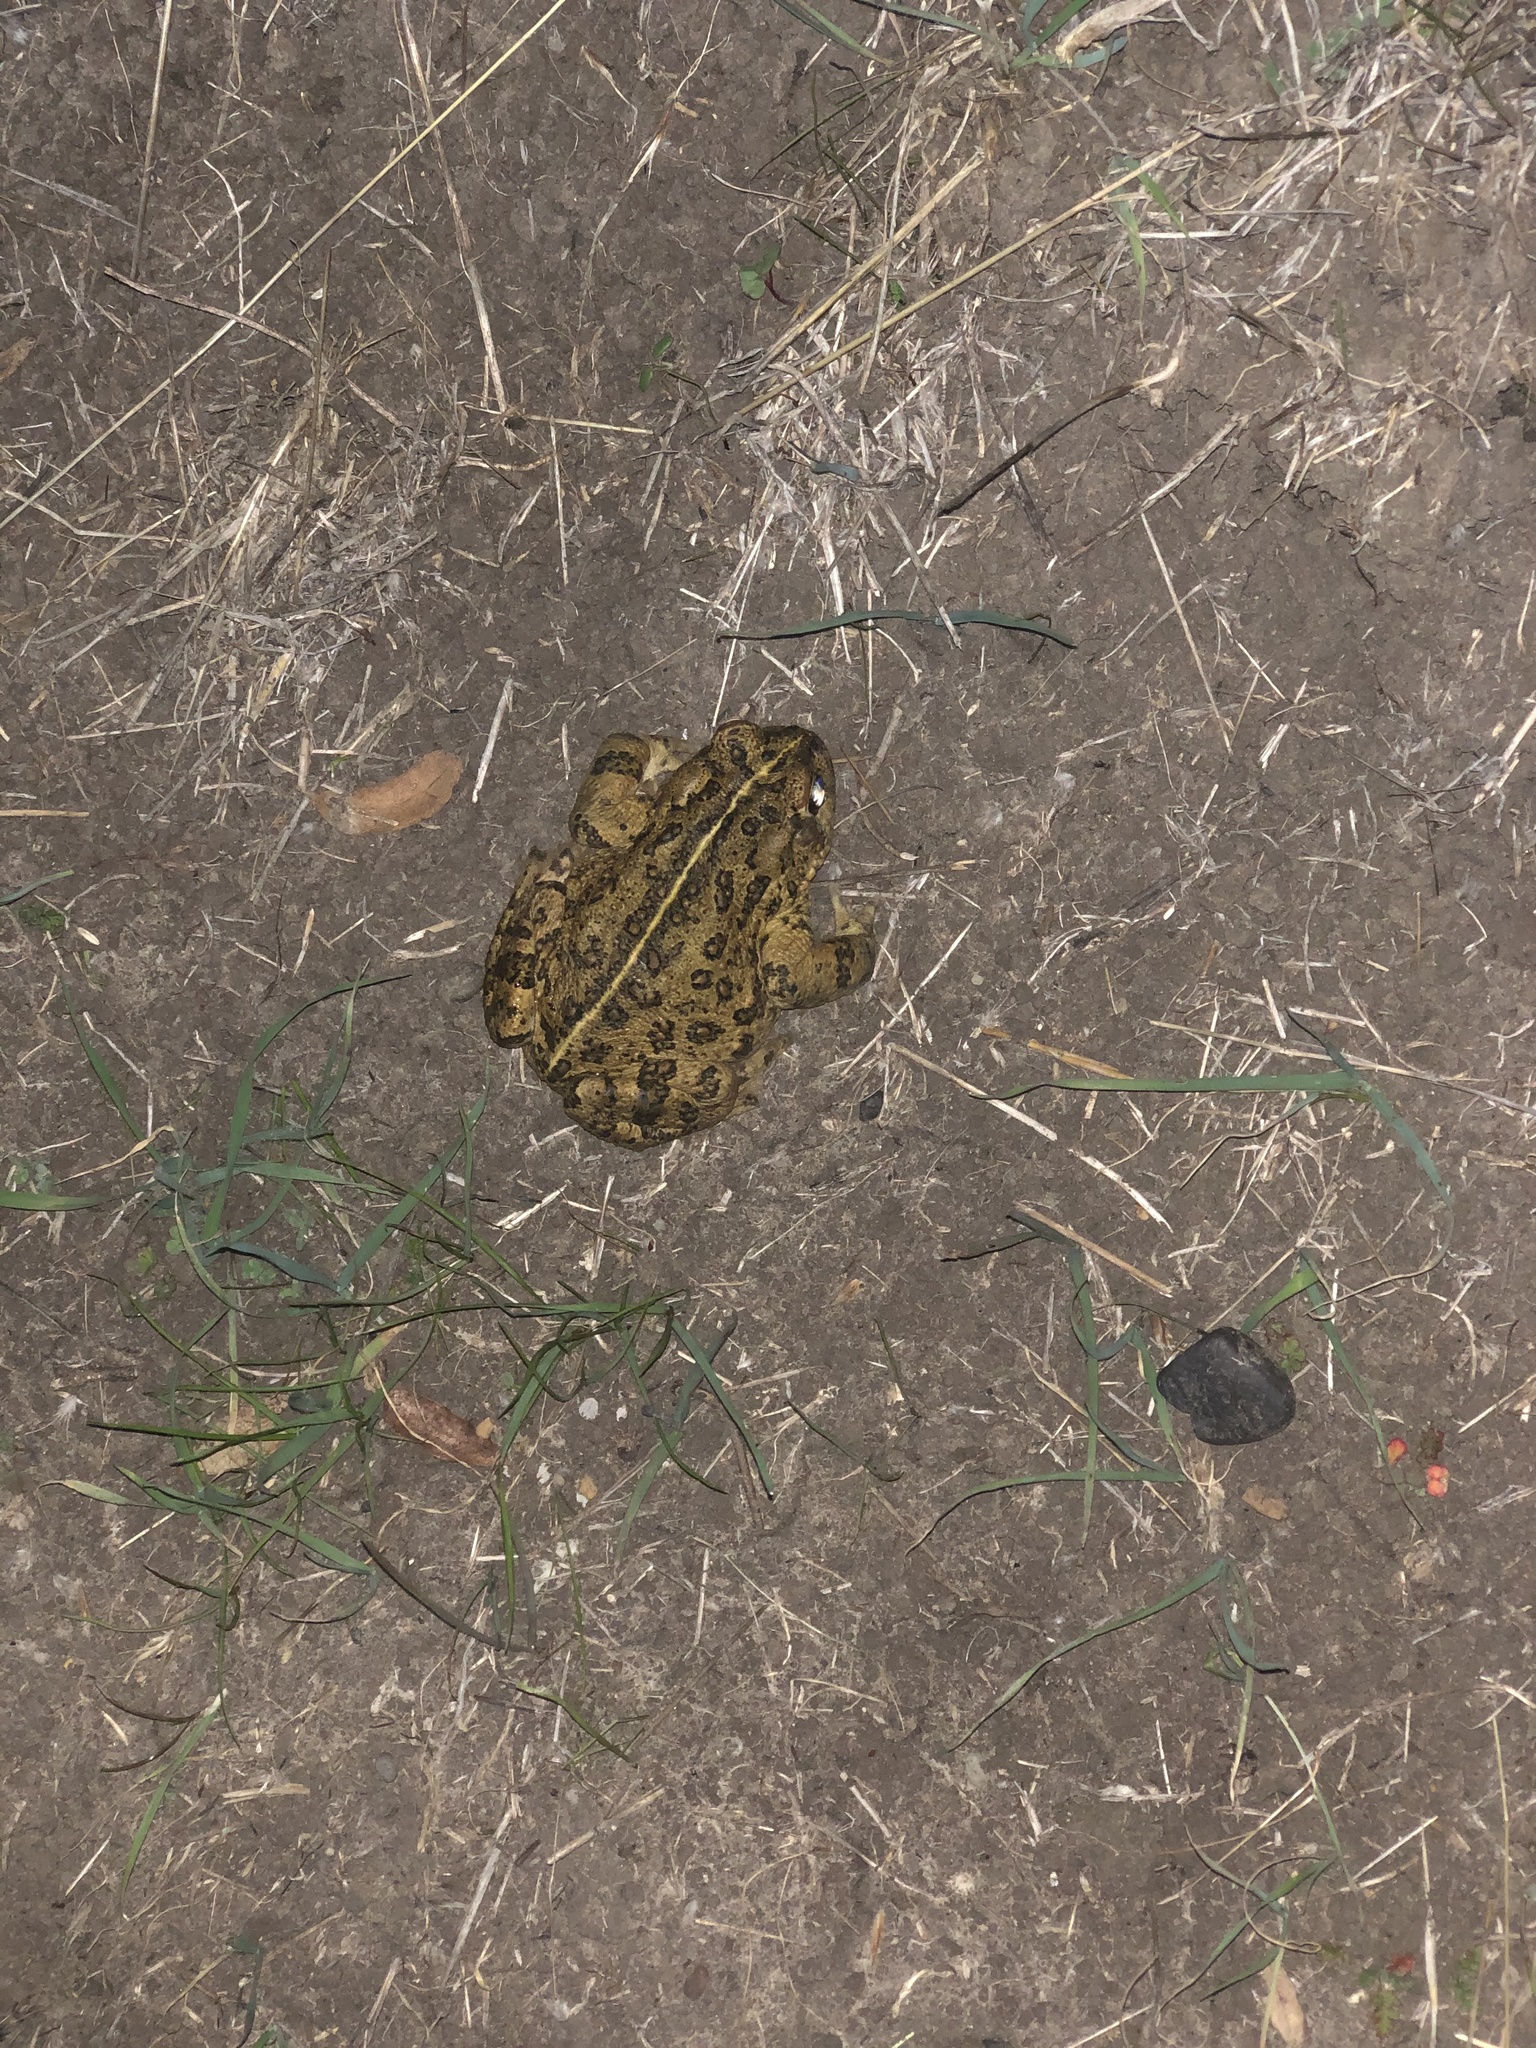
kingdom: Animalia
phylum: Chordata
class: Amphibia
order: Anura
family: Bufonidae
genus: Anaxyrus
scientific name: Anaxyrus boreas
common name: Western toad
